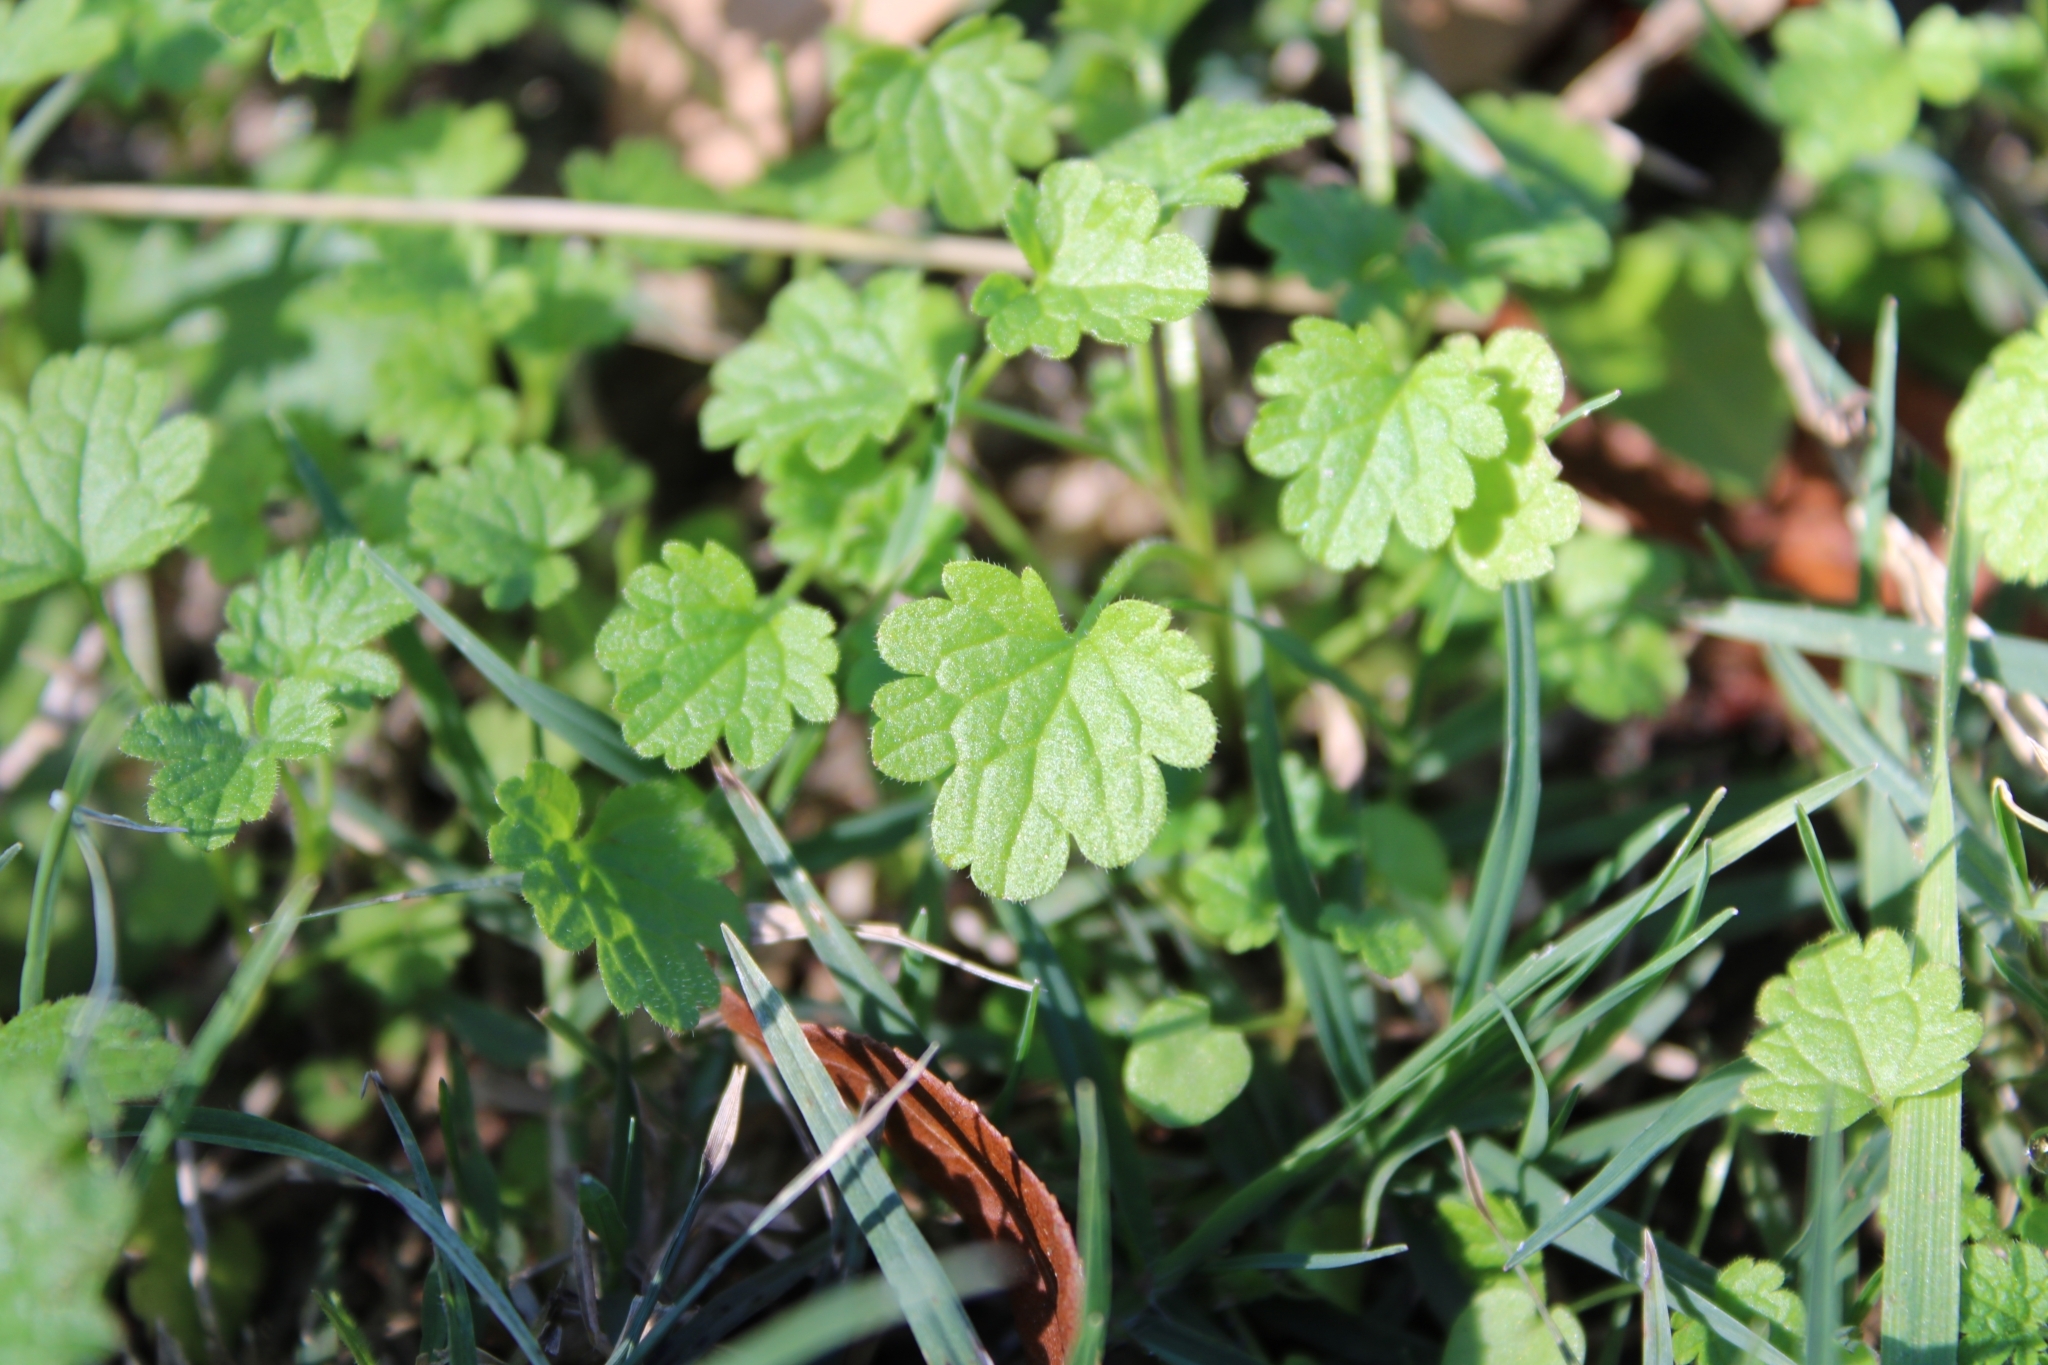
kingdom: Plantae
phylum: Tracheophyta
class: Magnoliopsida
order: Lamiales
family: Lamiaceae
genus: Lamium
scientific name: Lamium amplexicaule
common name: Henbit dead-nettle
